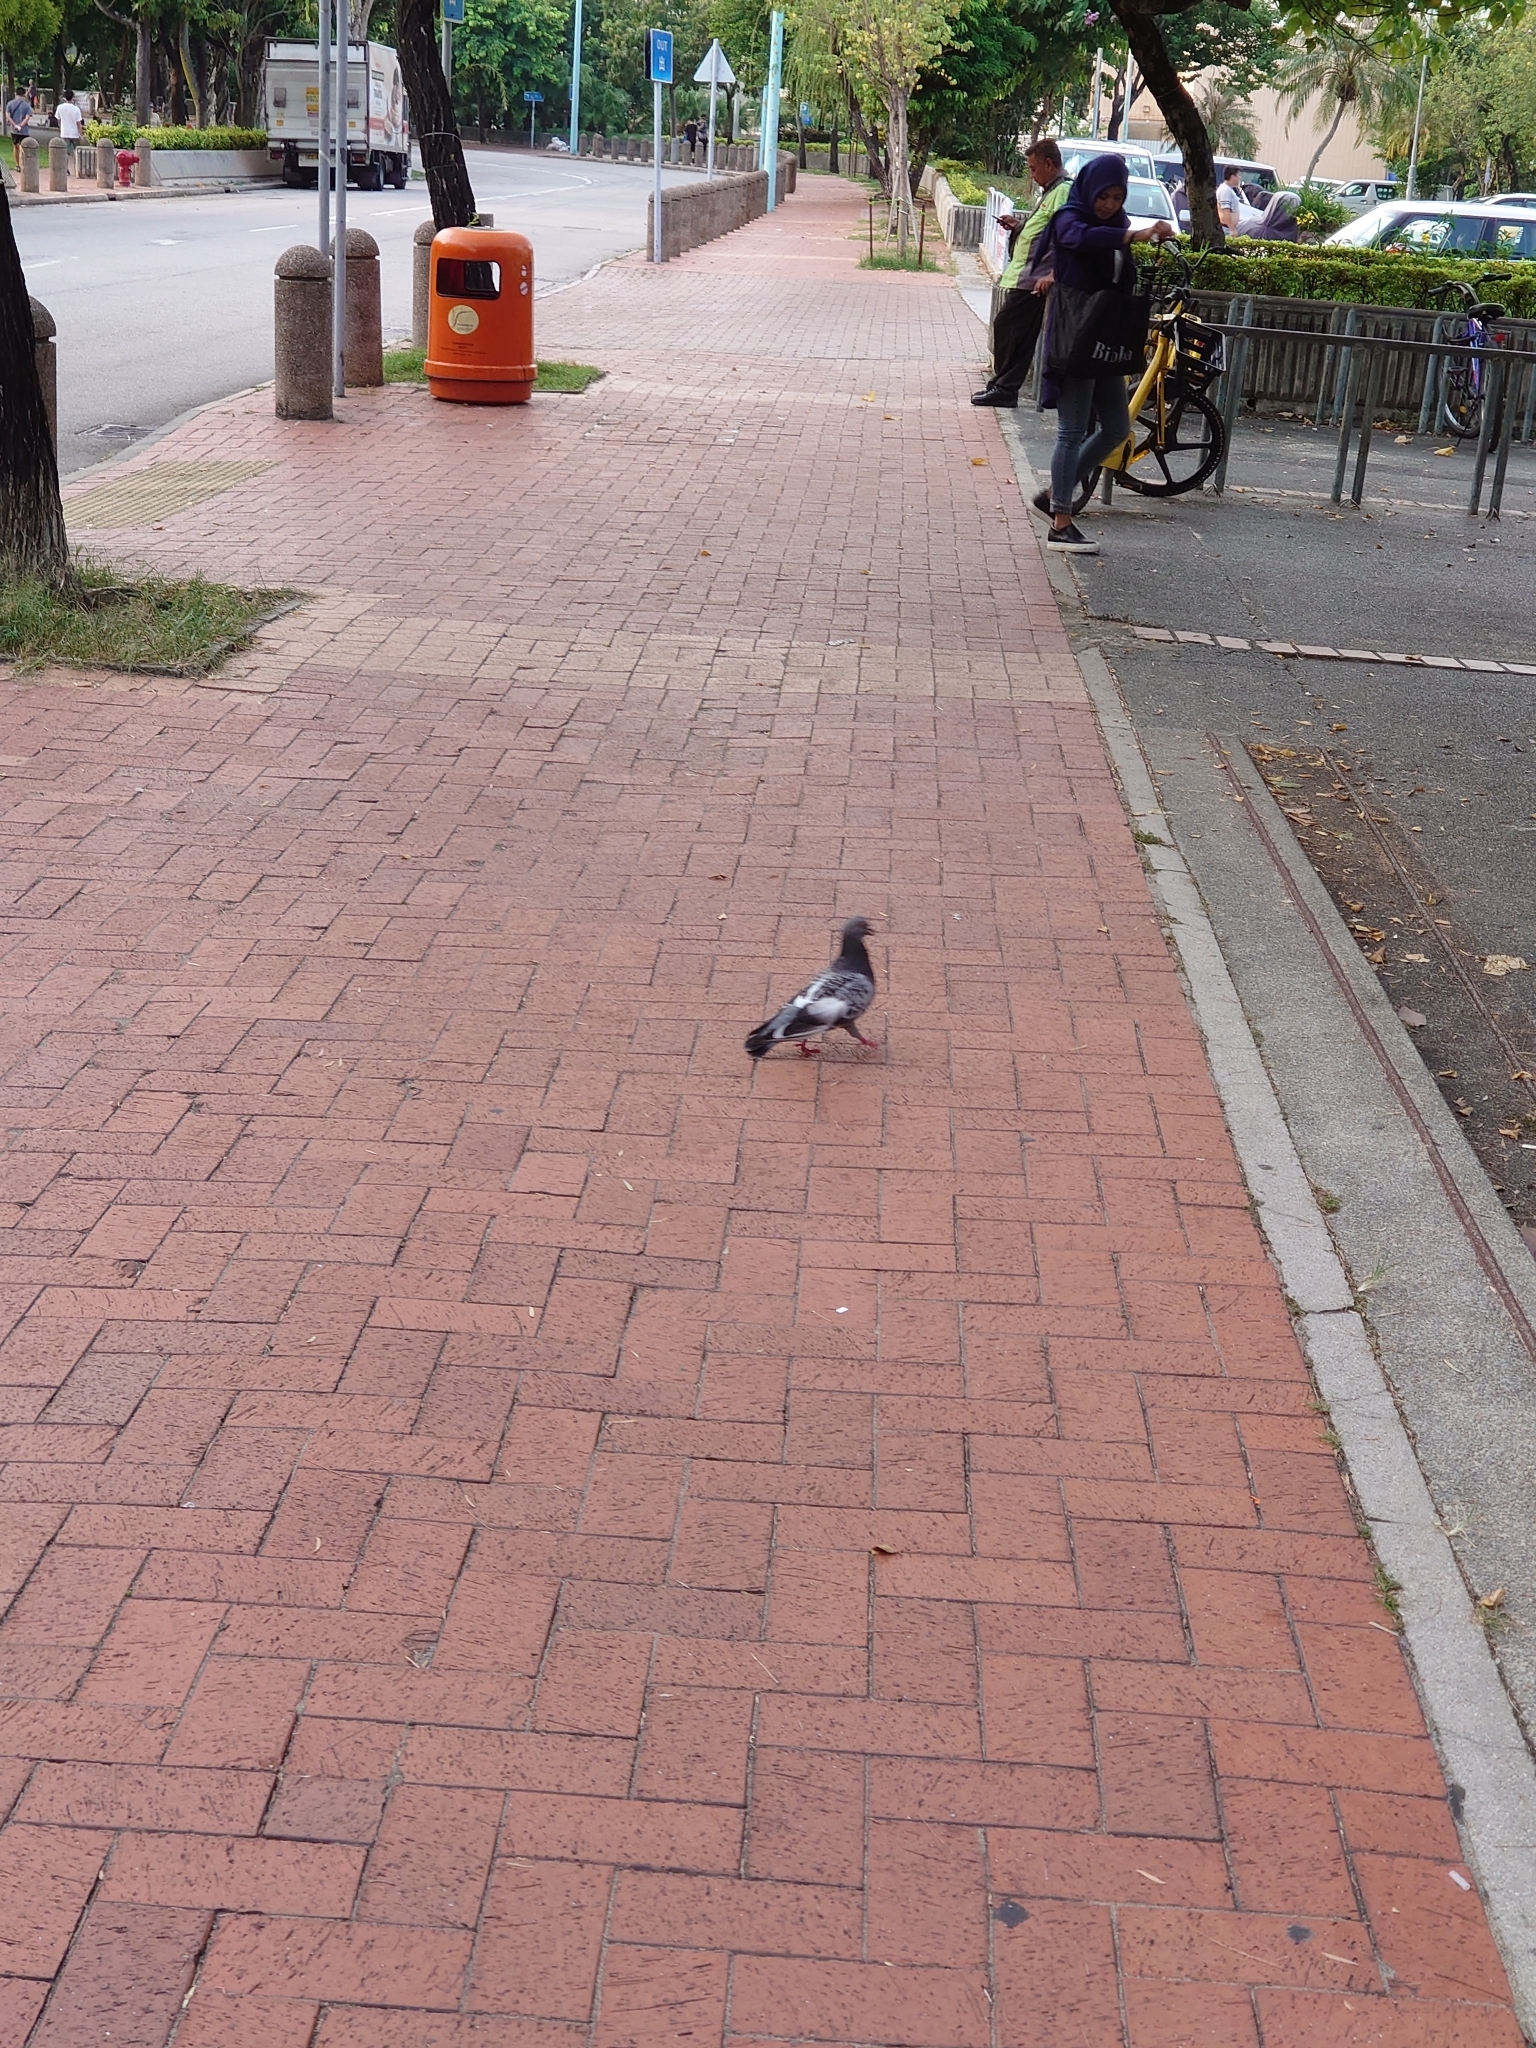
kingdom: Animalia
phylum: Chordata
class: Aves
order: Columbiformes
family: Columbidae
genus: Columba
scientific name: Columba livia
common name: Rock pigeon
